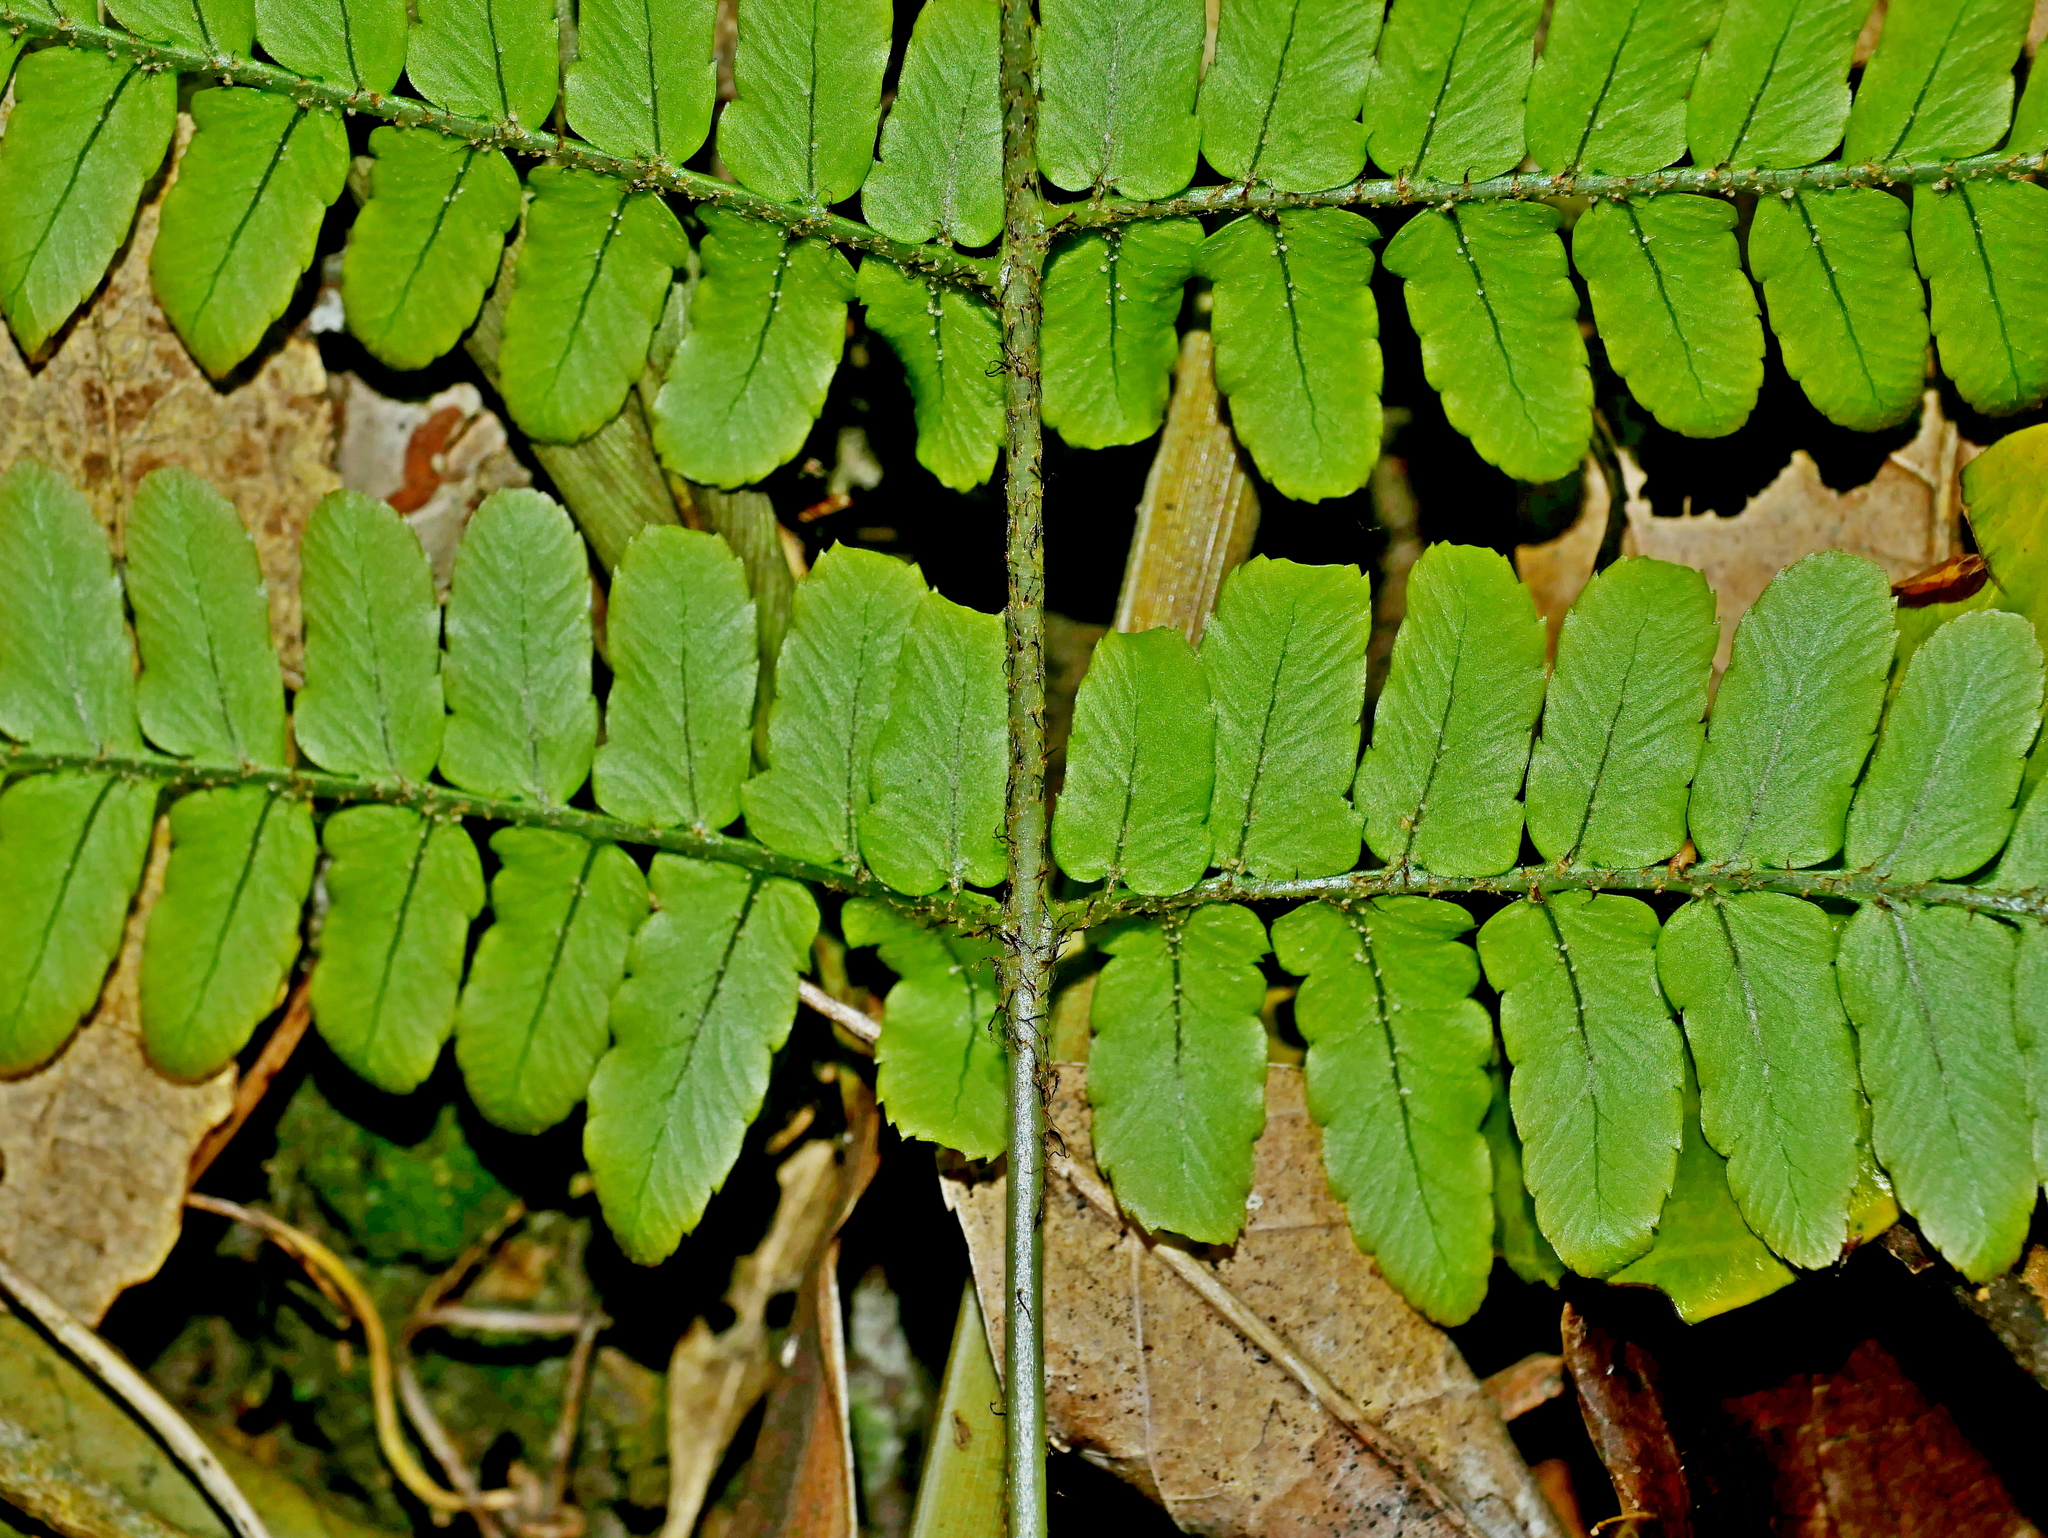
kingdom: Plantae
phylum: Tracheophyta
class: Polypodiopsida
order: Polypodiales
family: Dryopteridaceae
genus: Dryopteris
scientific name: Dryopteris tenuipes
